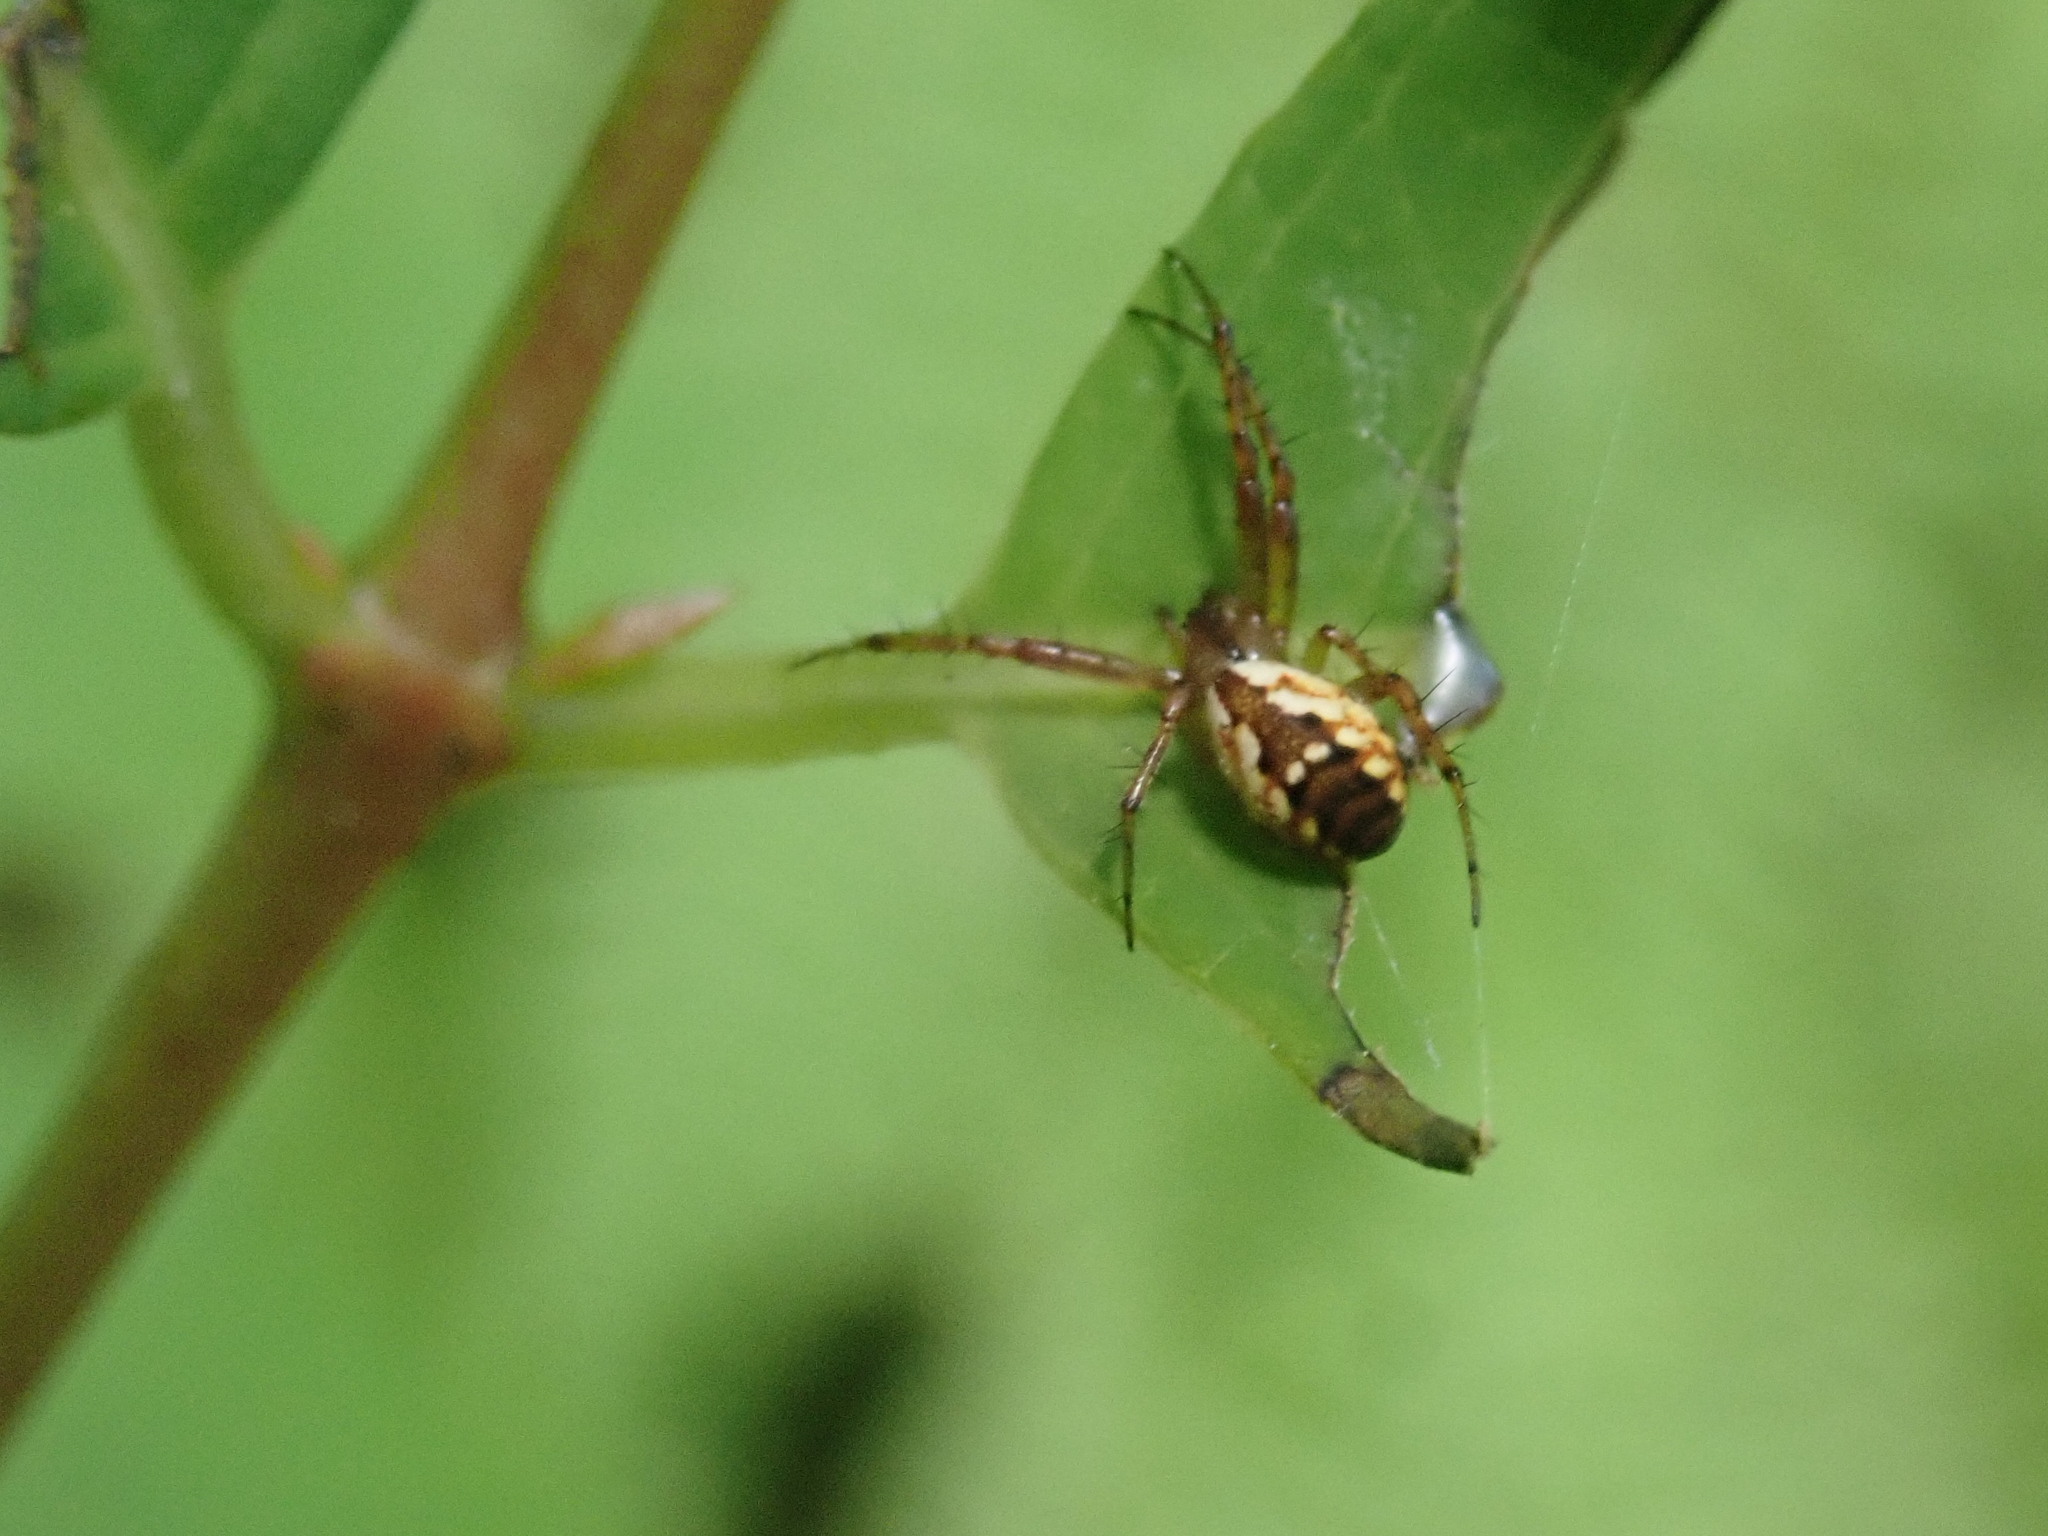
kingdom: Animalia
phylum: Arthropoda
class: Arachnida
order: Araneae
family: Araneidae
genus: Mangora
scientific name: Mangora placida
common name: Tuft-legged orbweaver
